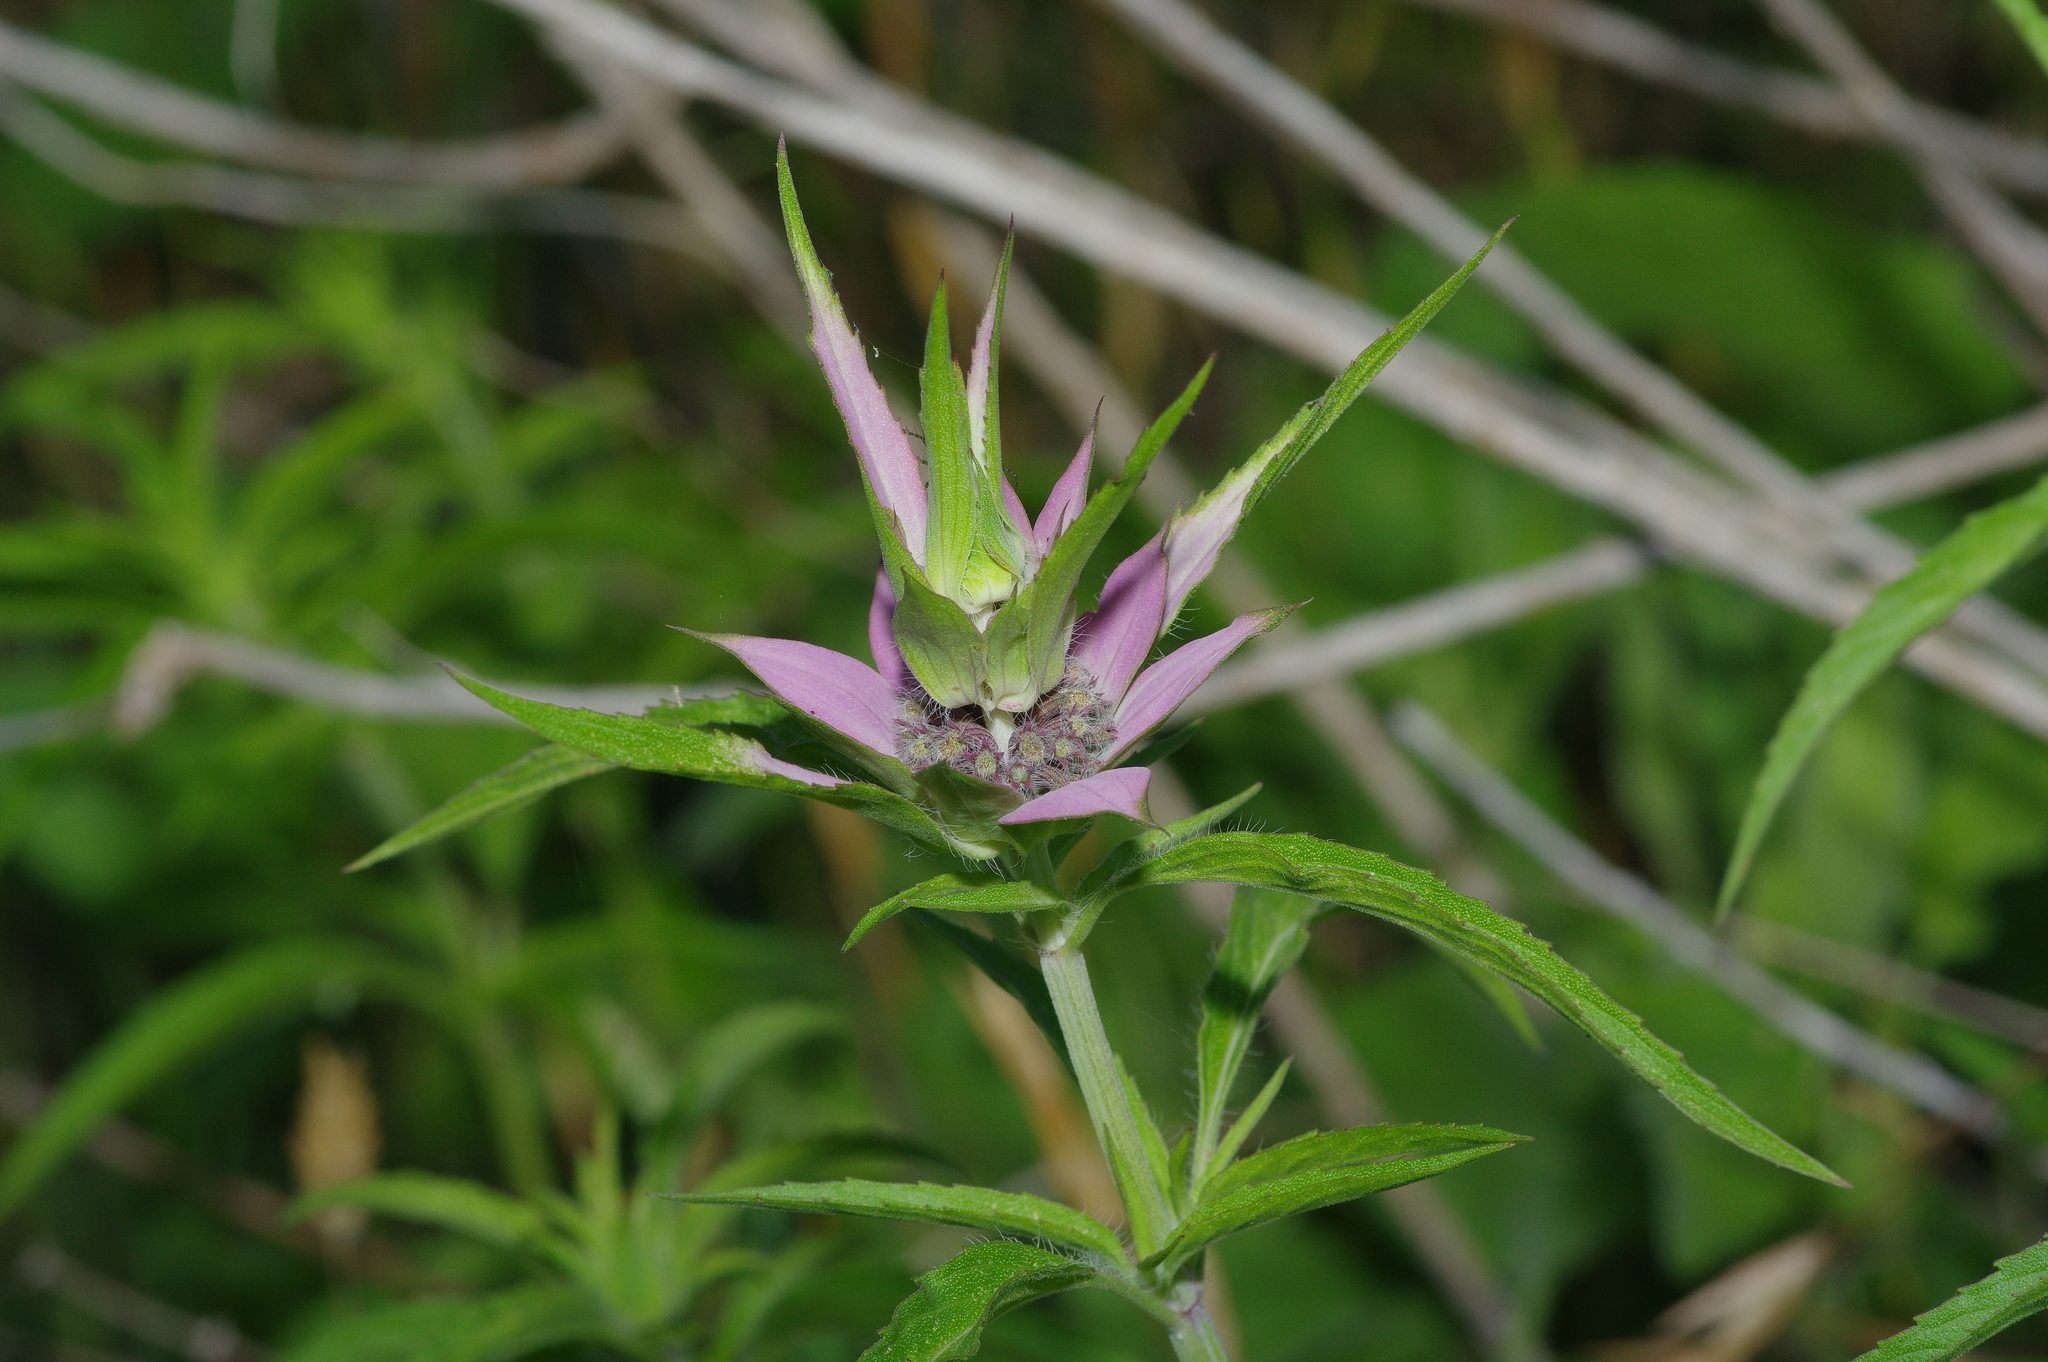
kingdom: Plantae
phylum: Tracheophyta
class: Magnoliopsida
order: Lamiales
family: Lamiaceae
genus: Monarda
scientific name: Monarda punctata
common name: Dotted monarda
